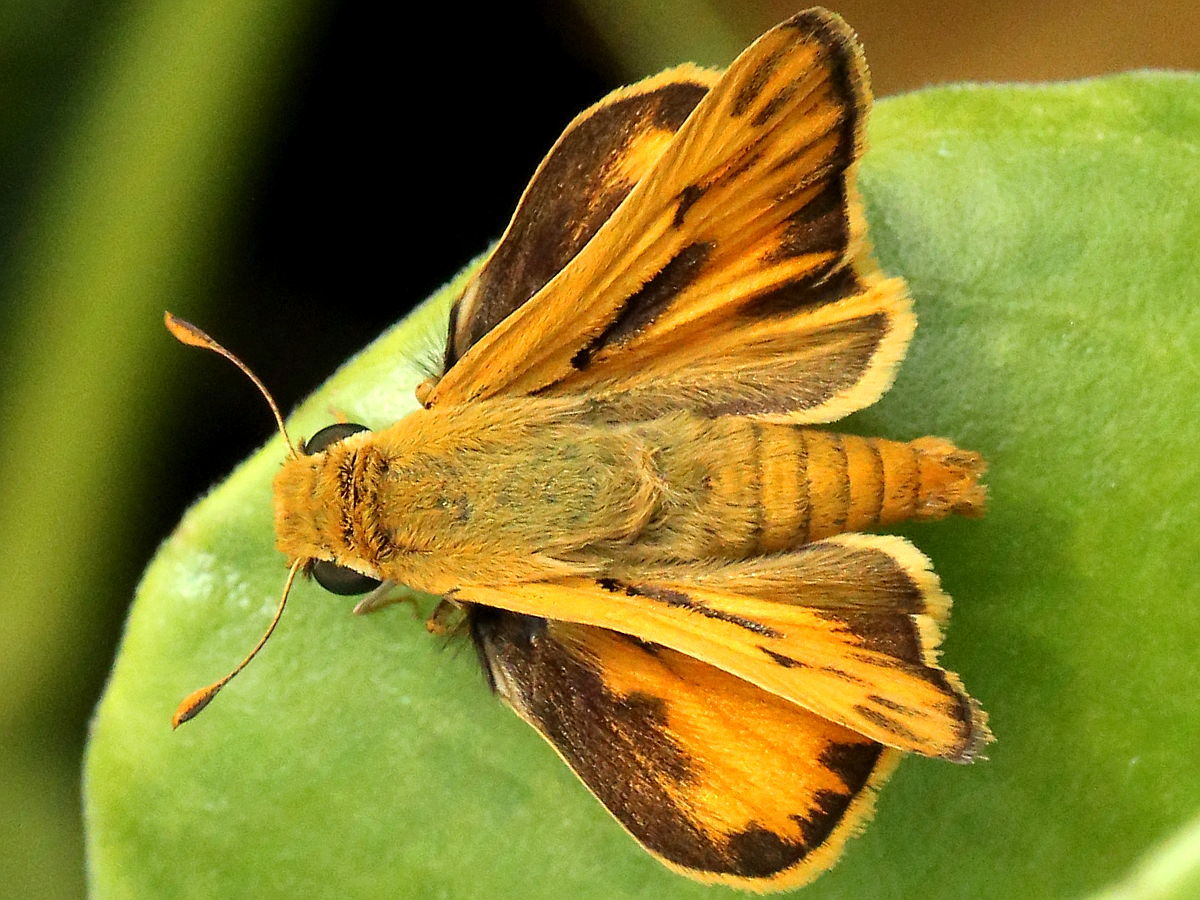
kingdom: Animalia
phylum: Arthropoda
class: Insecta
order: Lepidoptera
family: Hesperiidae
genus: Hylephila
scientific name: Hylephila phyleus
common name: Fiery skipper
